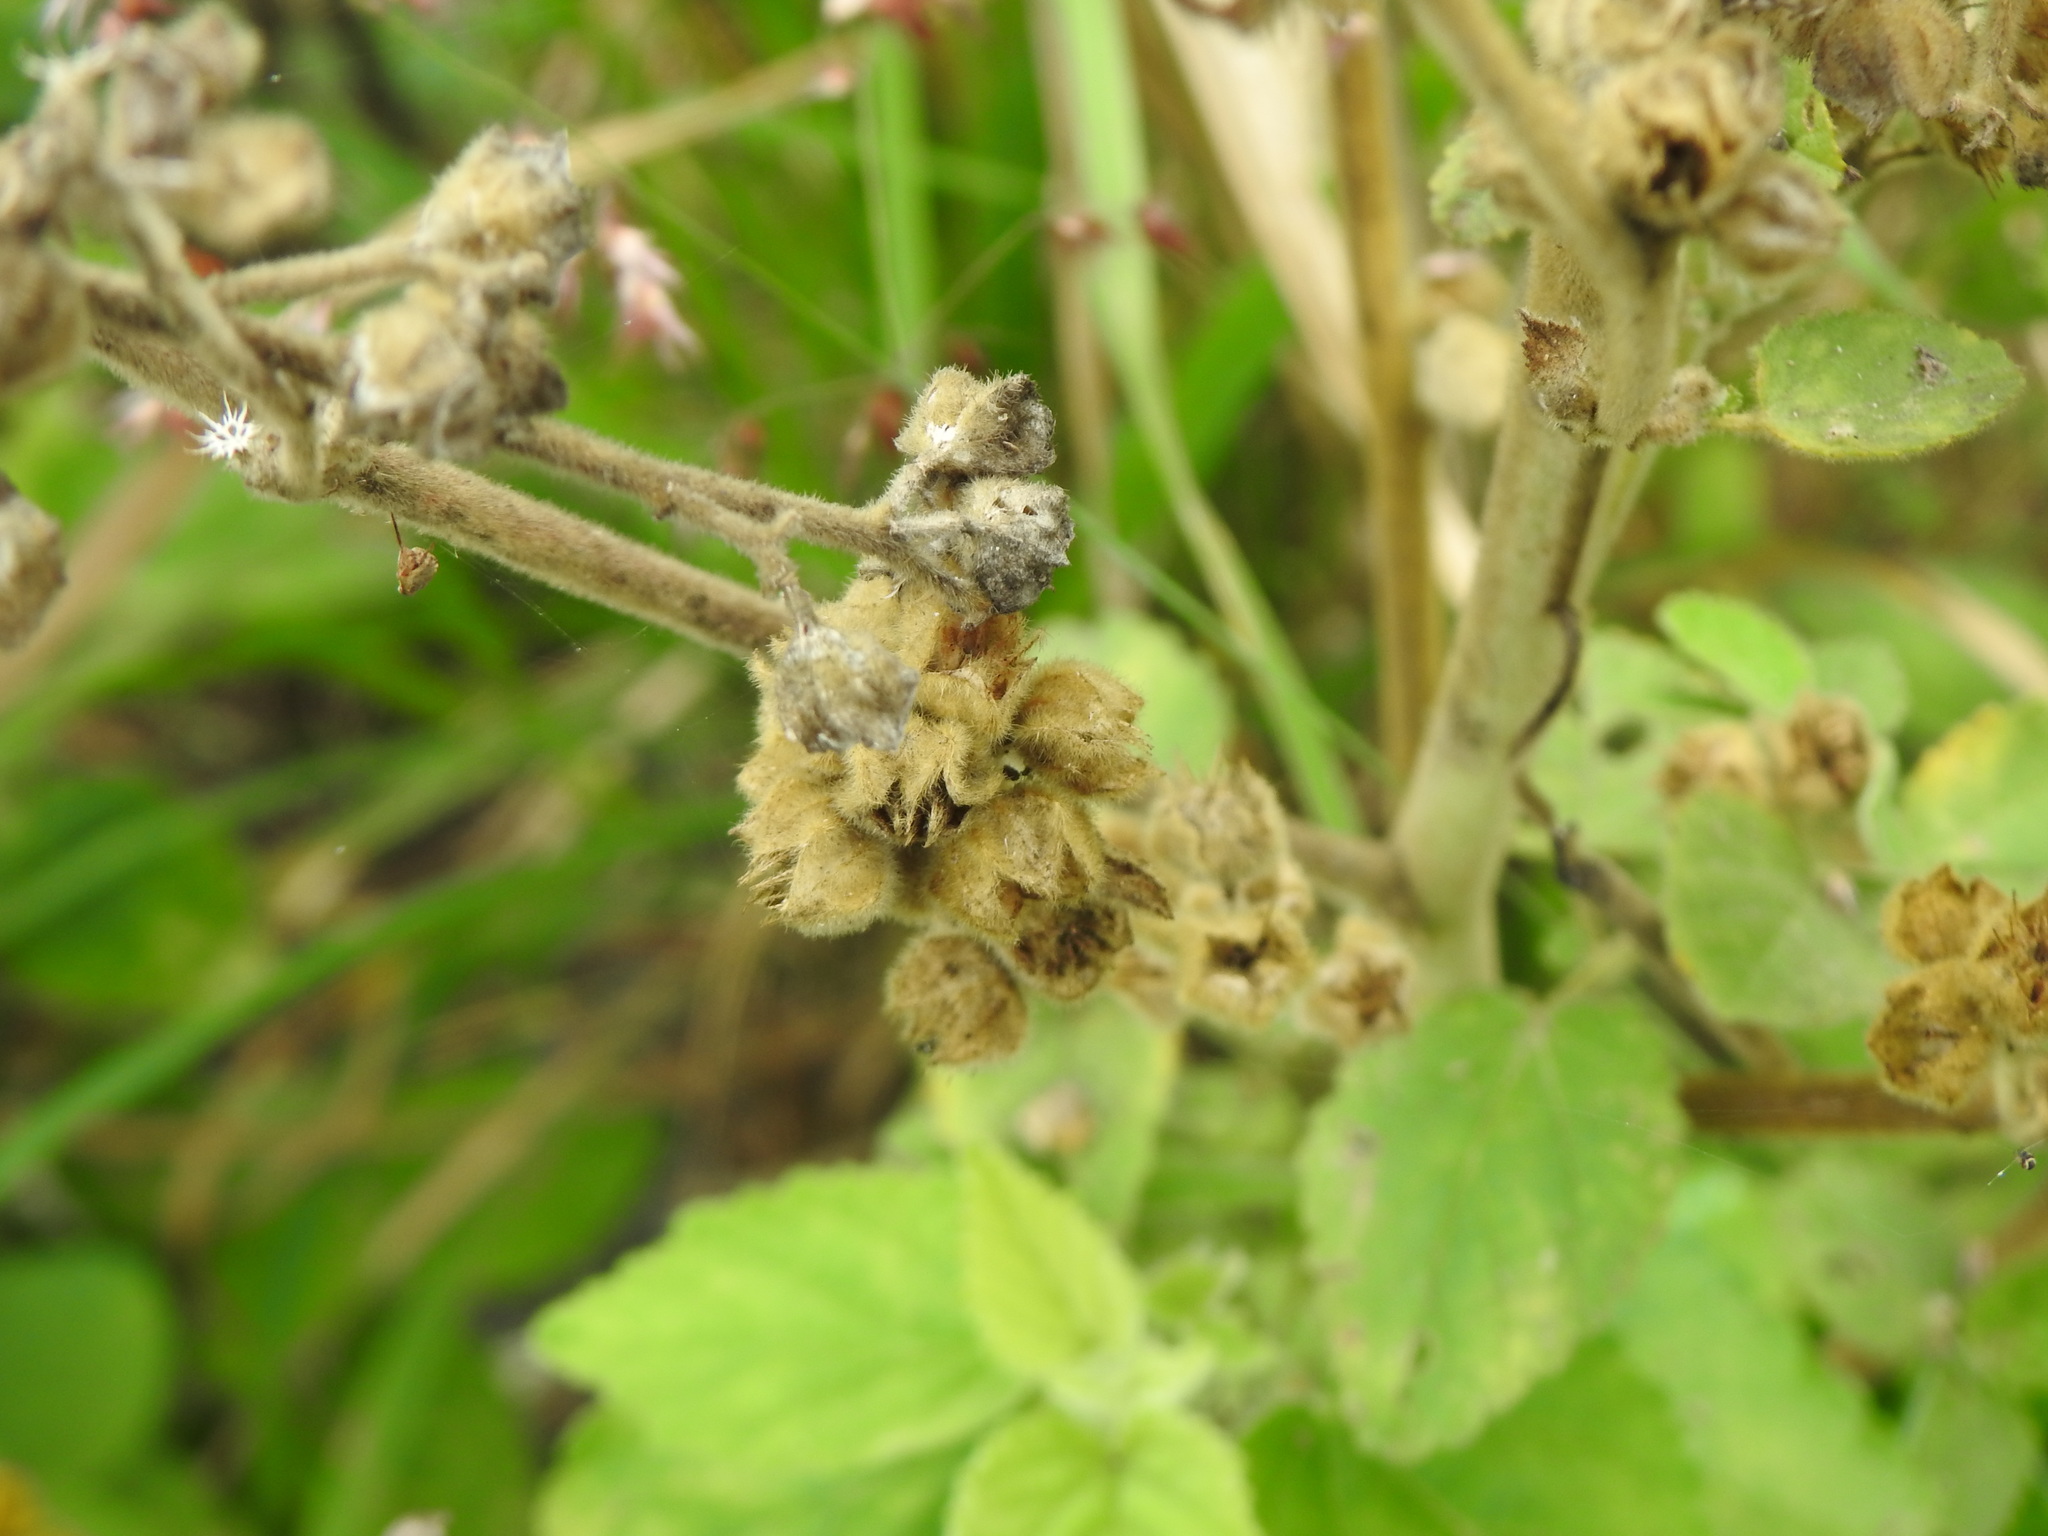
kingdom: Plantae
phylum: Tracheophyta
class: Magnoliopsida
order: Malvales
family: Malvaceae
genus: Sida
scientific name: Sida cordifolia
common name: Ilima
